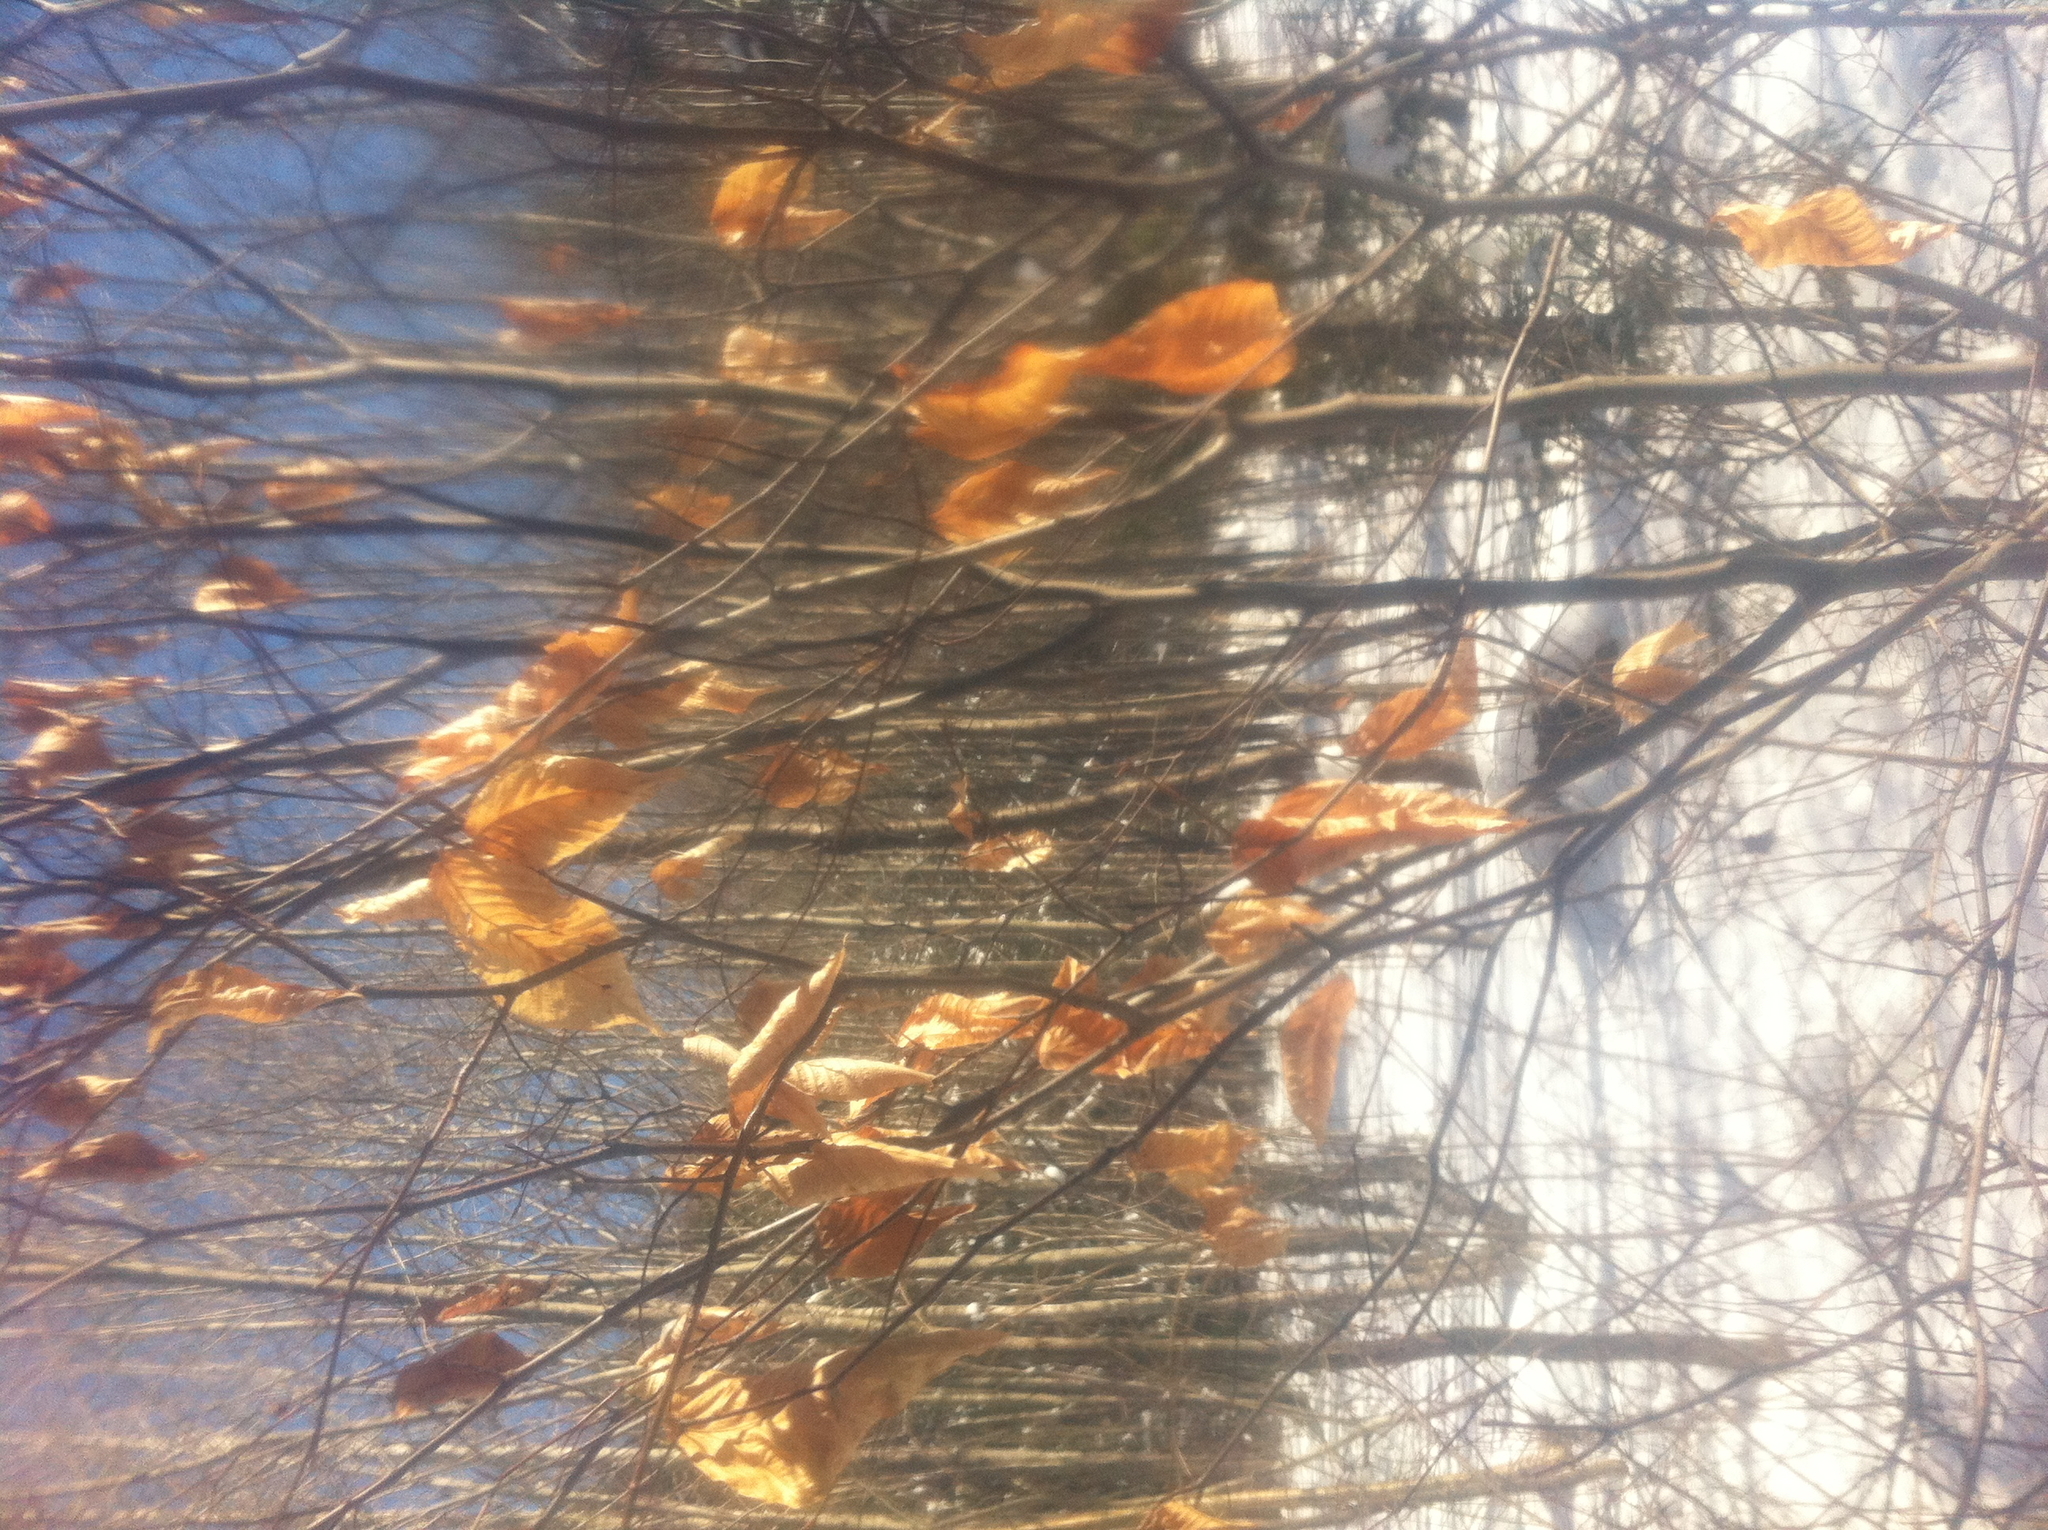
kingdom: Plantae
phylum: Tracheophyta
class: Magnoliopsida
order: Fagales
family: Fagaceae
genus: Fagus
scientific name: Fagus grandifolia
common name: American beech
